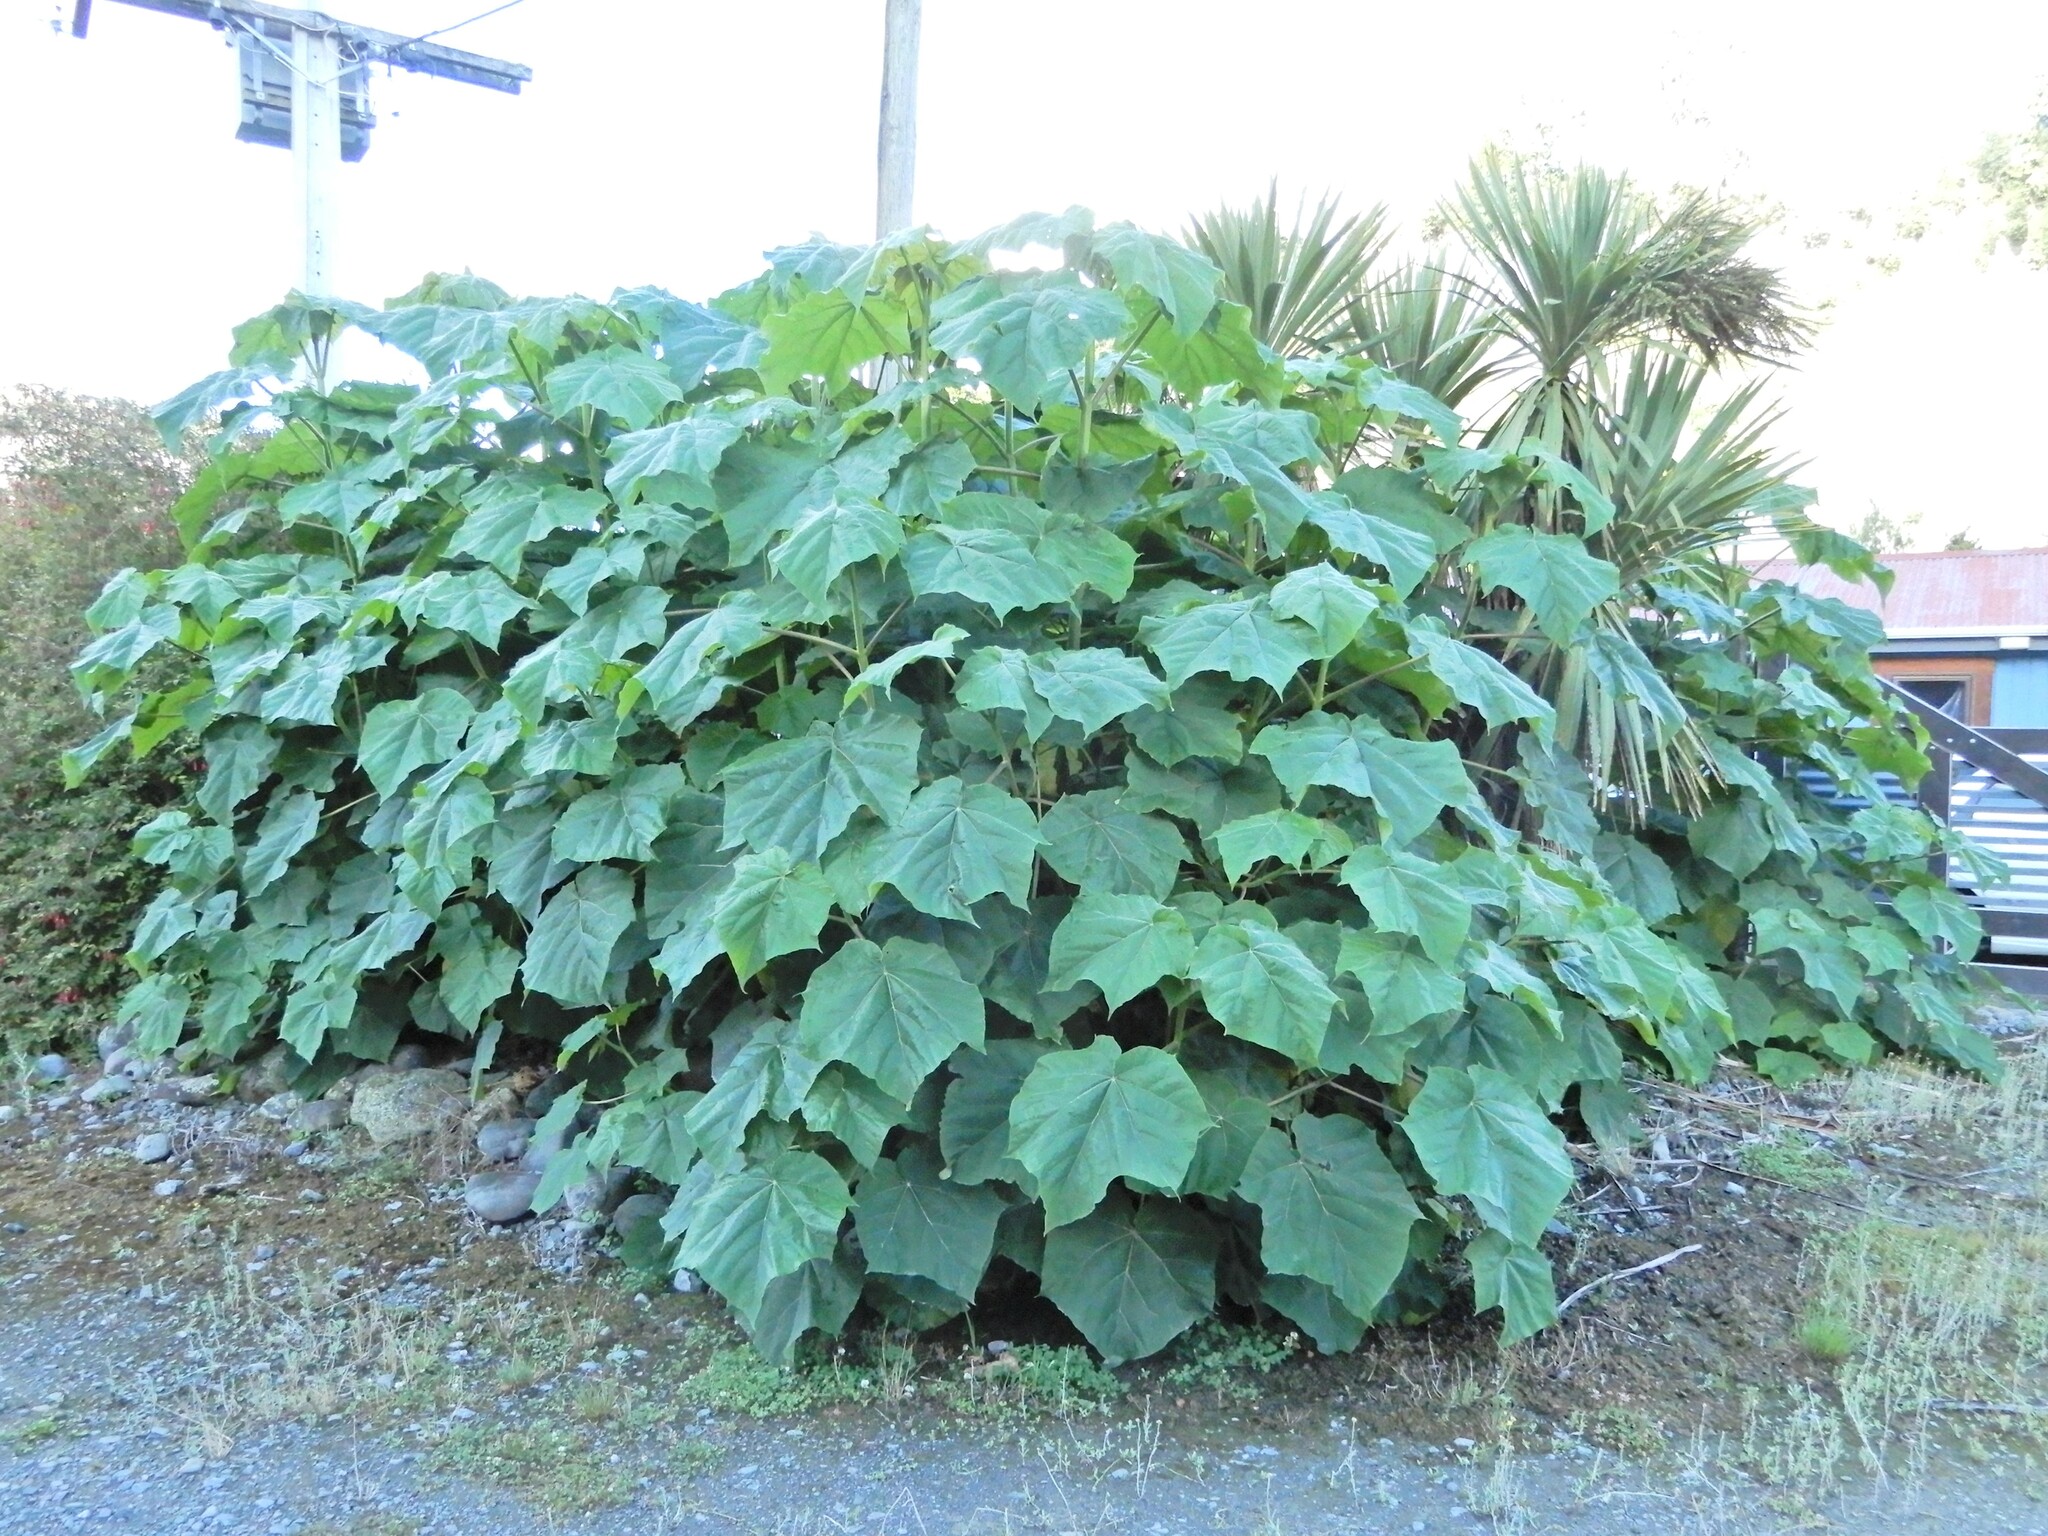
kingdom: Plantae
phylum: Tracheophyta
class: Magnoliopsida
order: Lamiales
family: Paulowniaceae
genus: Paulownia
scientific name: Paulownia tomentosa
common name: Foxglove-tree
